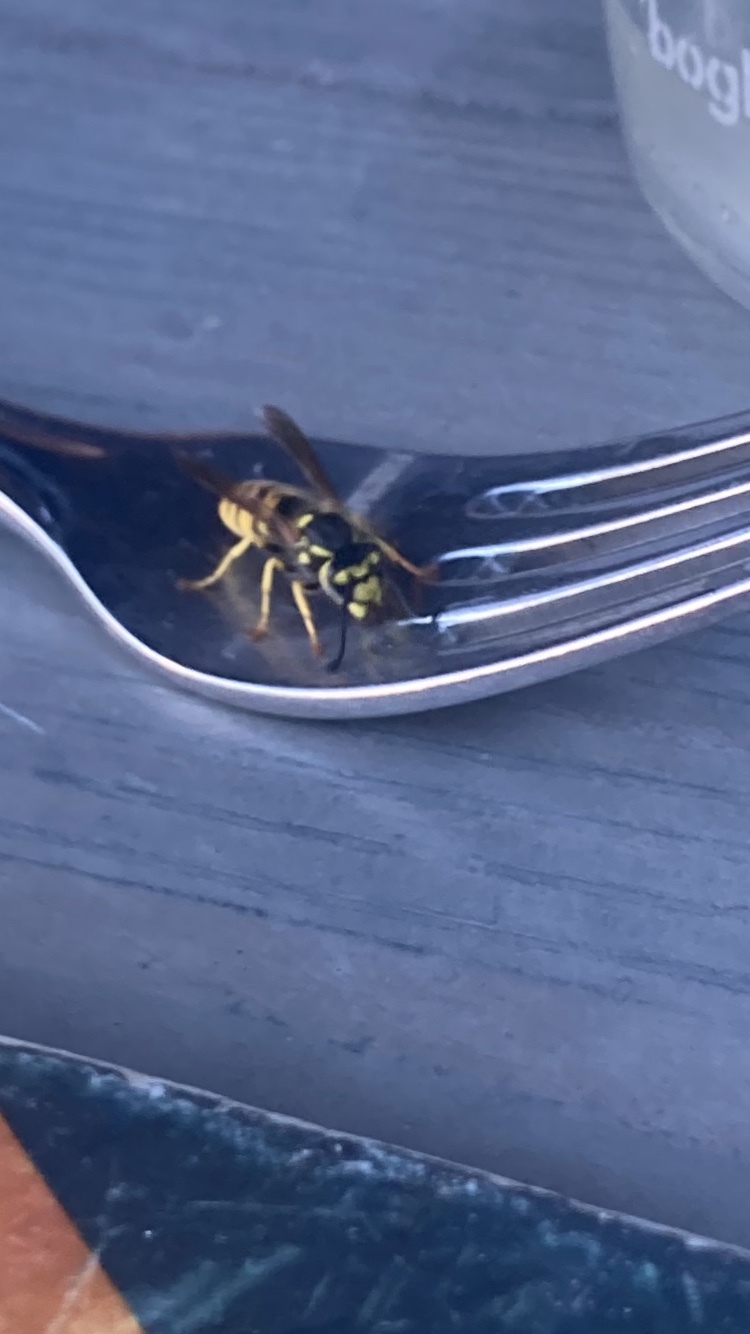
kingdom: Animalia
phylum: Arthropoda
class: Insecta
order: Hymenoptera
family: Vespidae
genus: Vespula
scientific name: Vespula germanica
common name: German wasp
